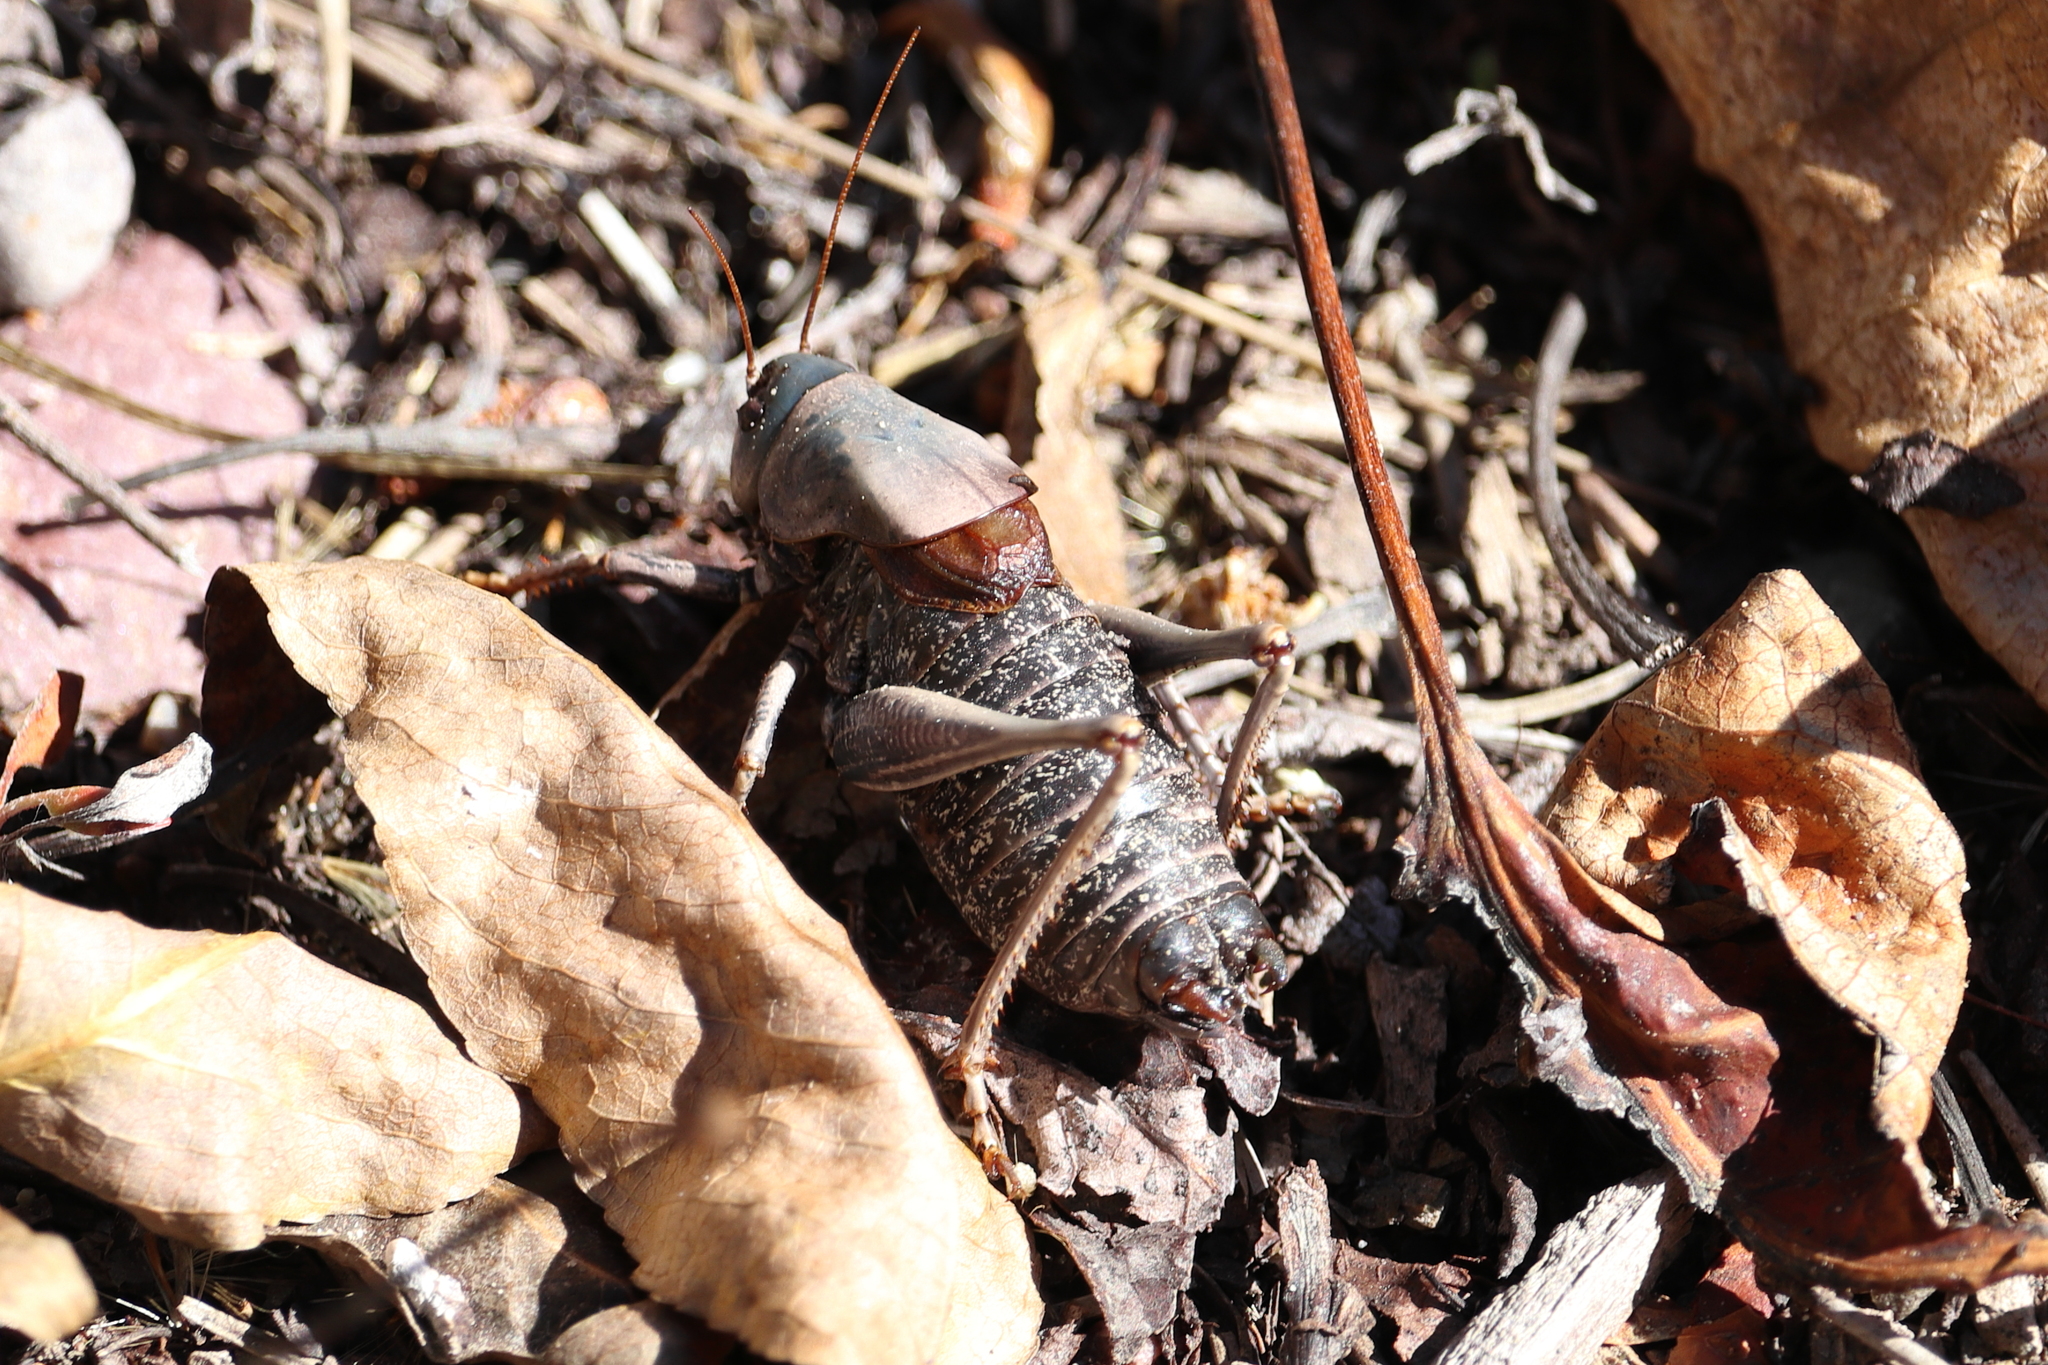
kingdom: Animalia
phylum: Arthropoda
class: Insecta
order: Orthoptera
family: Tettigoniidae
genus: Anabrus
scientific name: Anabrus simplex
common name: Mormon cricket
